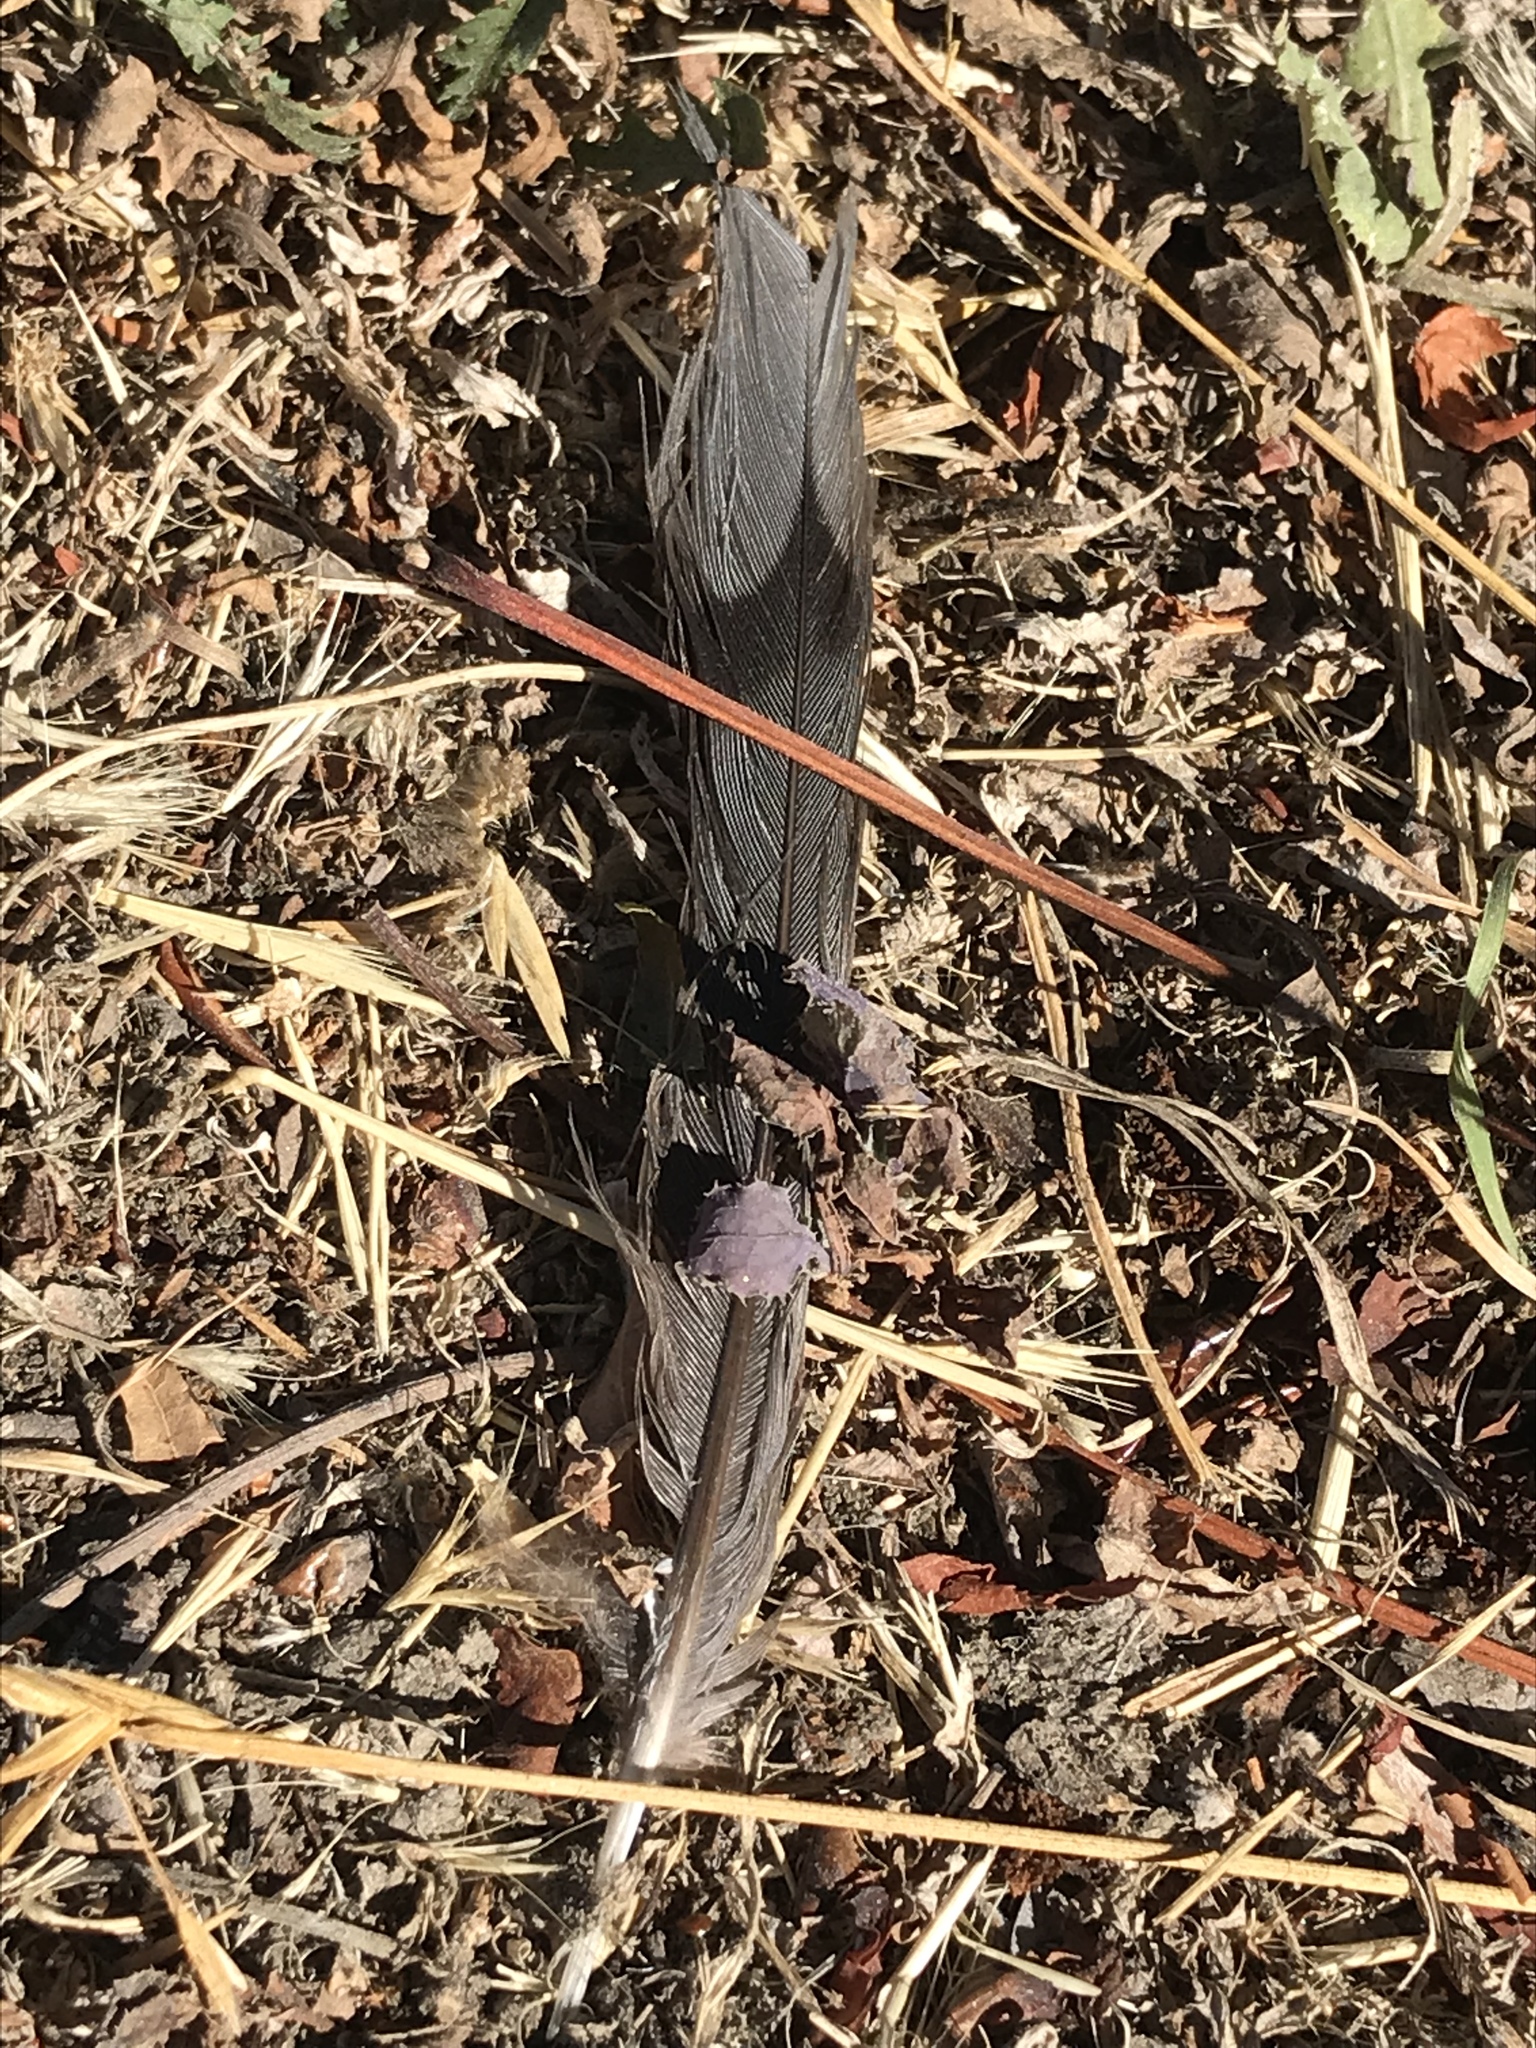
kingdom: Animalia
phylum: Chordata
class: Aves
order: Columbiformes
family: Columbidae
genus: Zenaida
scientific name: Zenaida macroura
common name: Mourning dove
